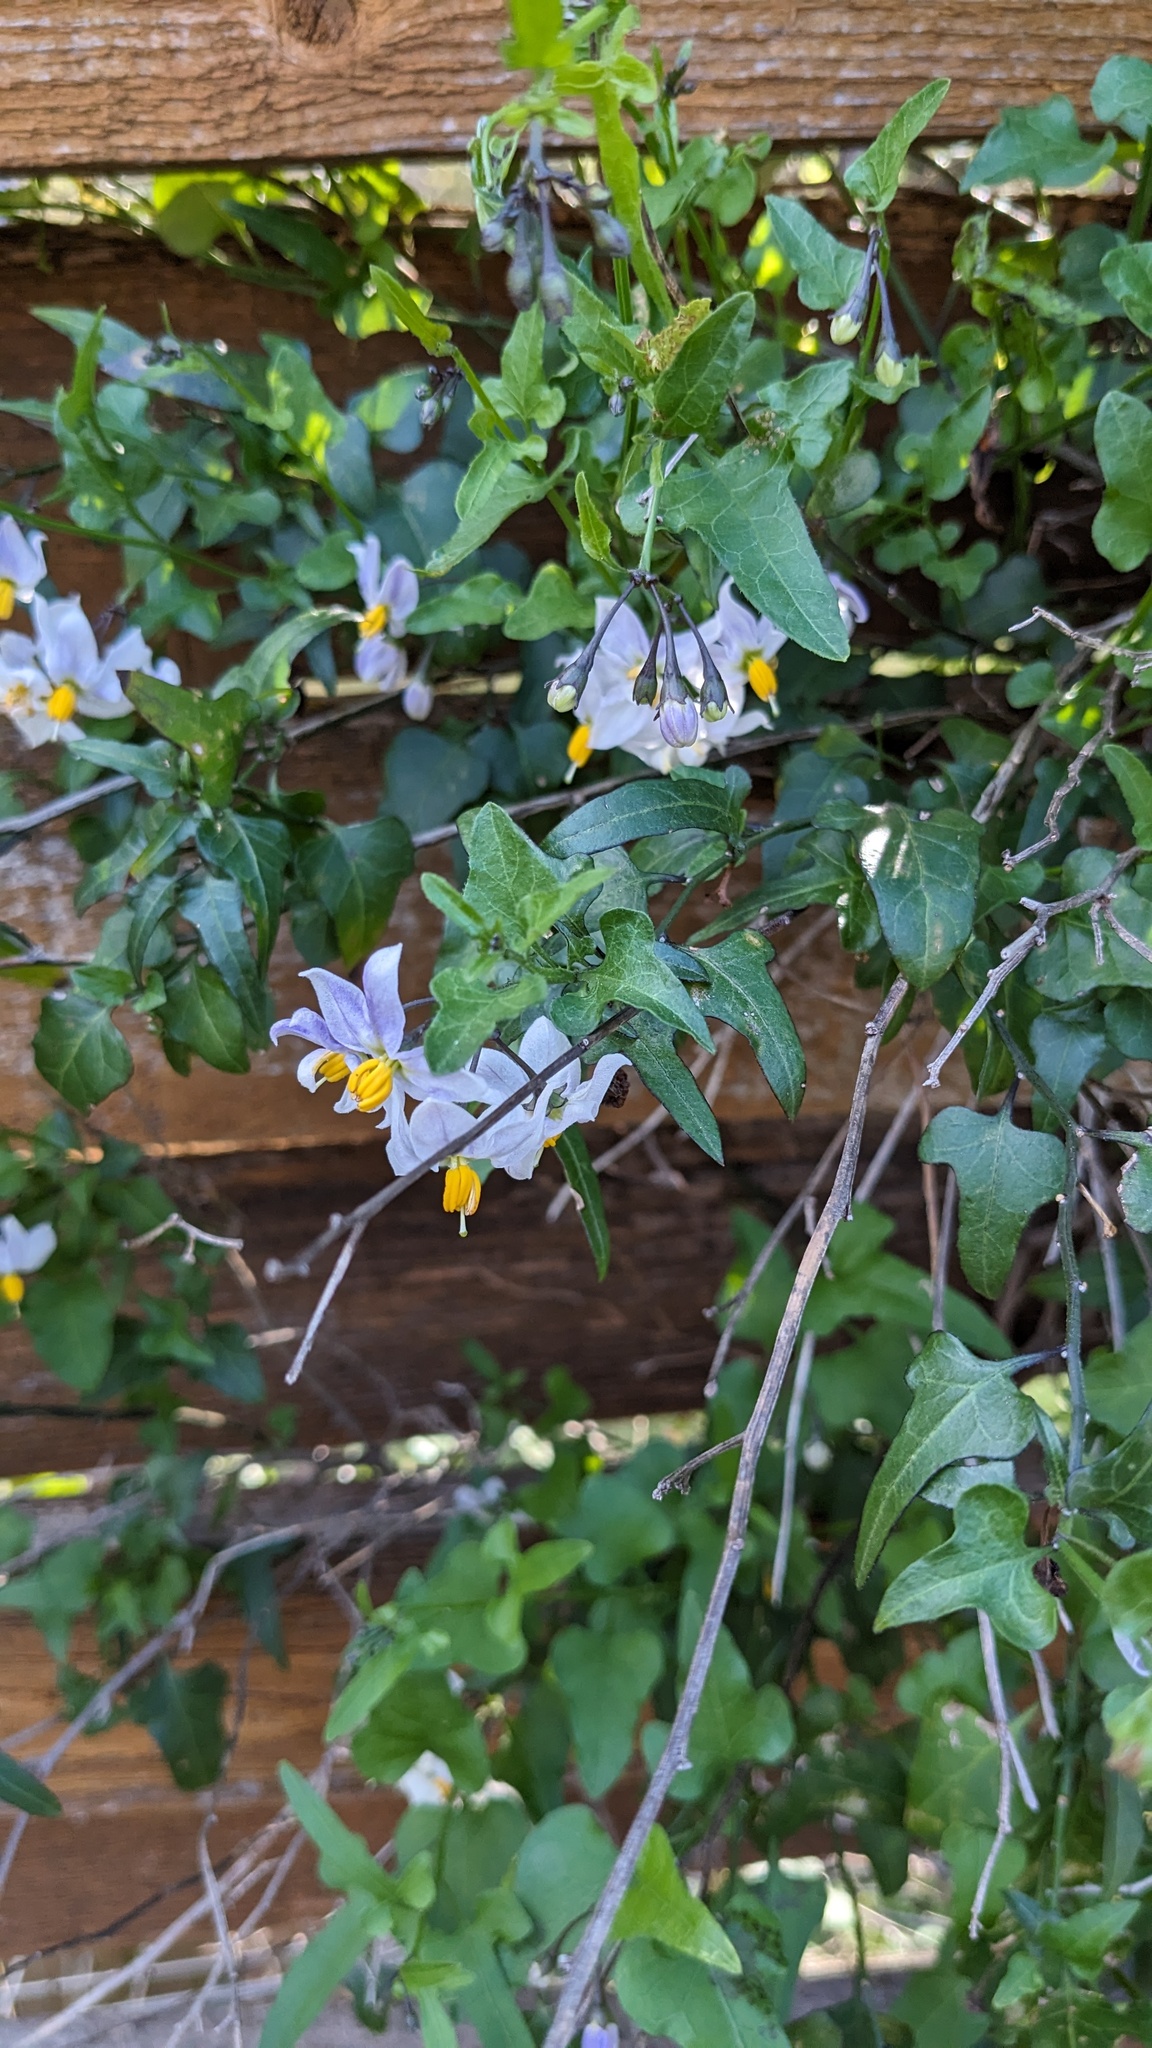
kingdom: Plantae
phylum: Tracheophyta
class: Magnoliopsida
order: Solanales
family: Solanaceae
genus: Solanum
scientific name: Solanum triquetrum
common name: Texas nightshade
